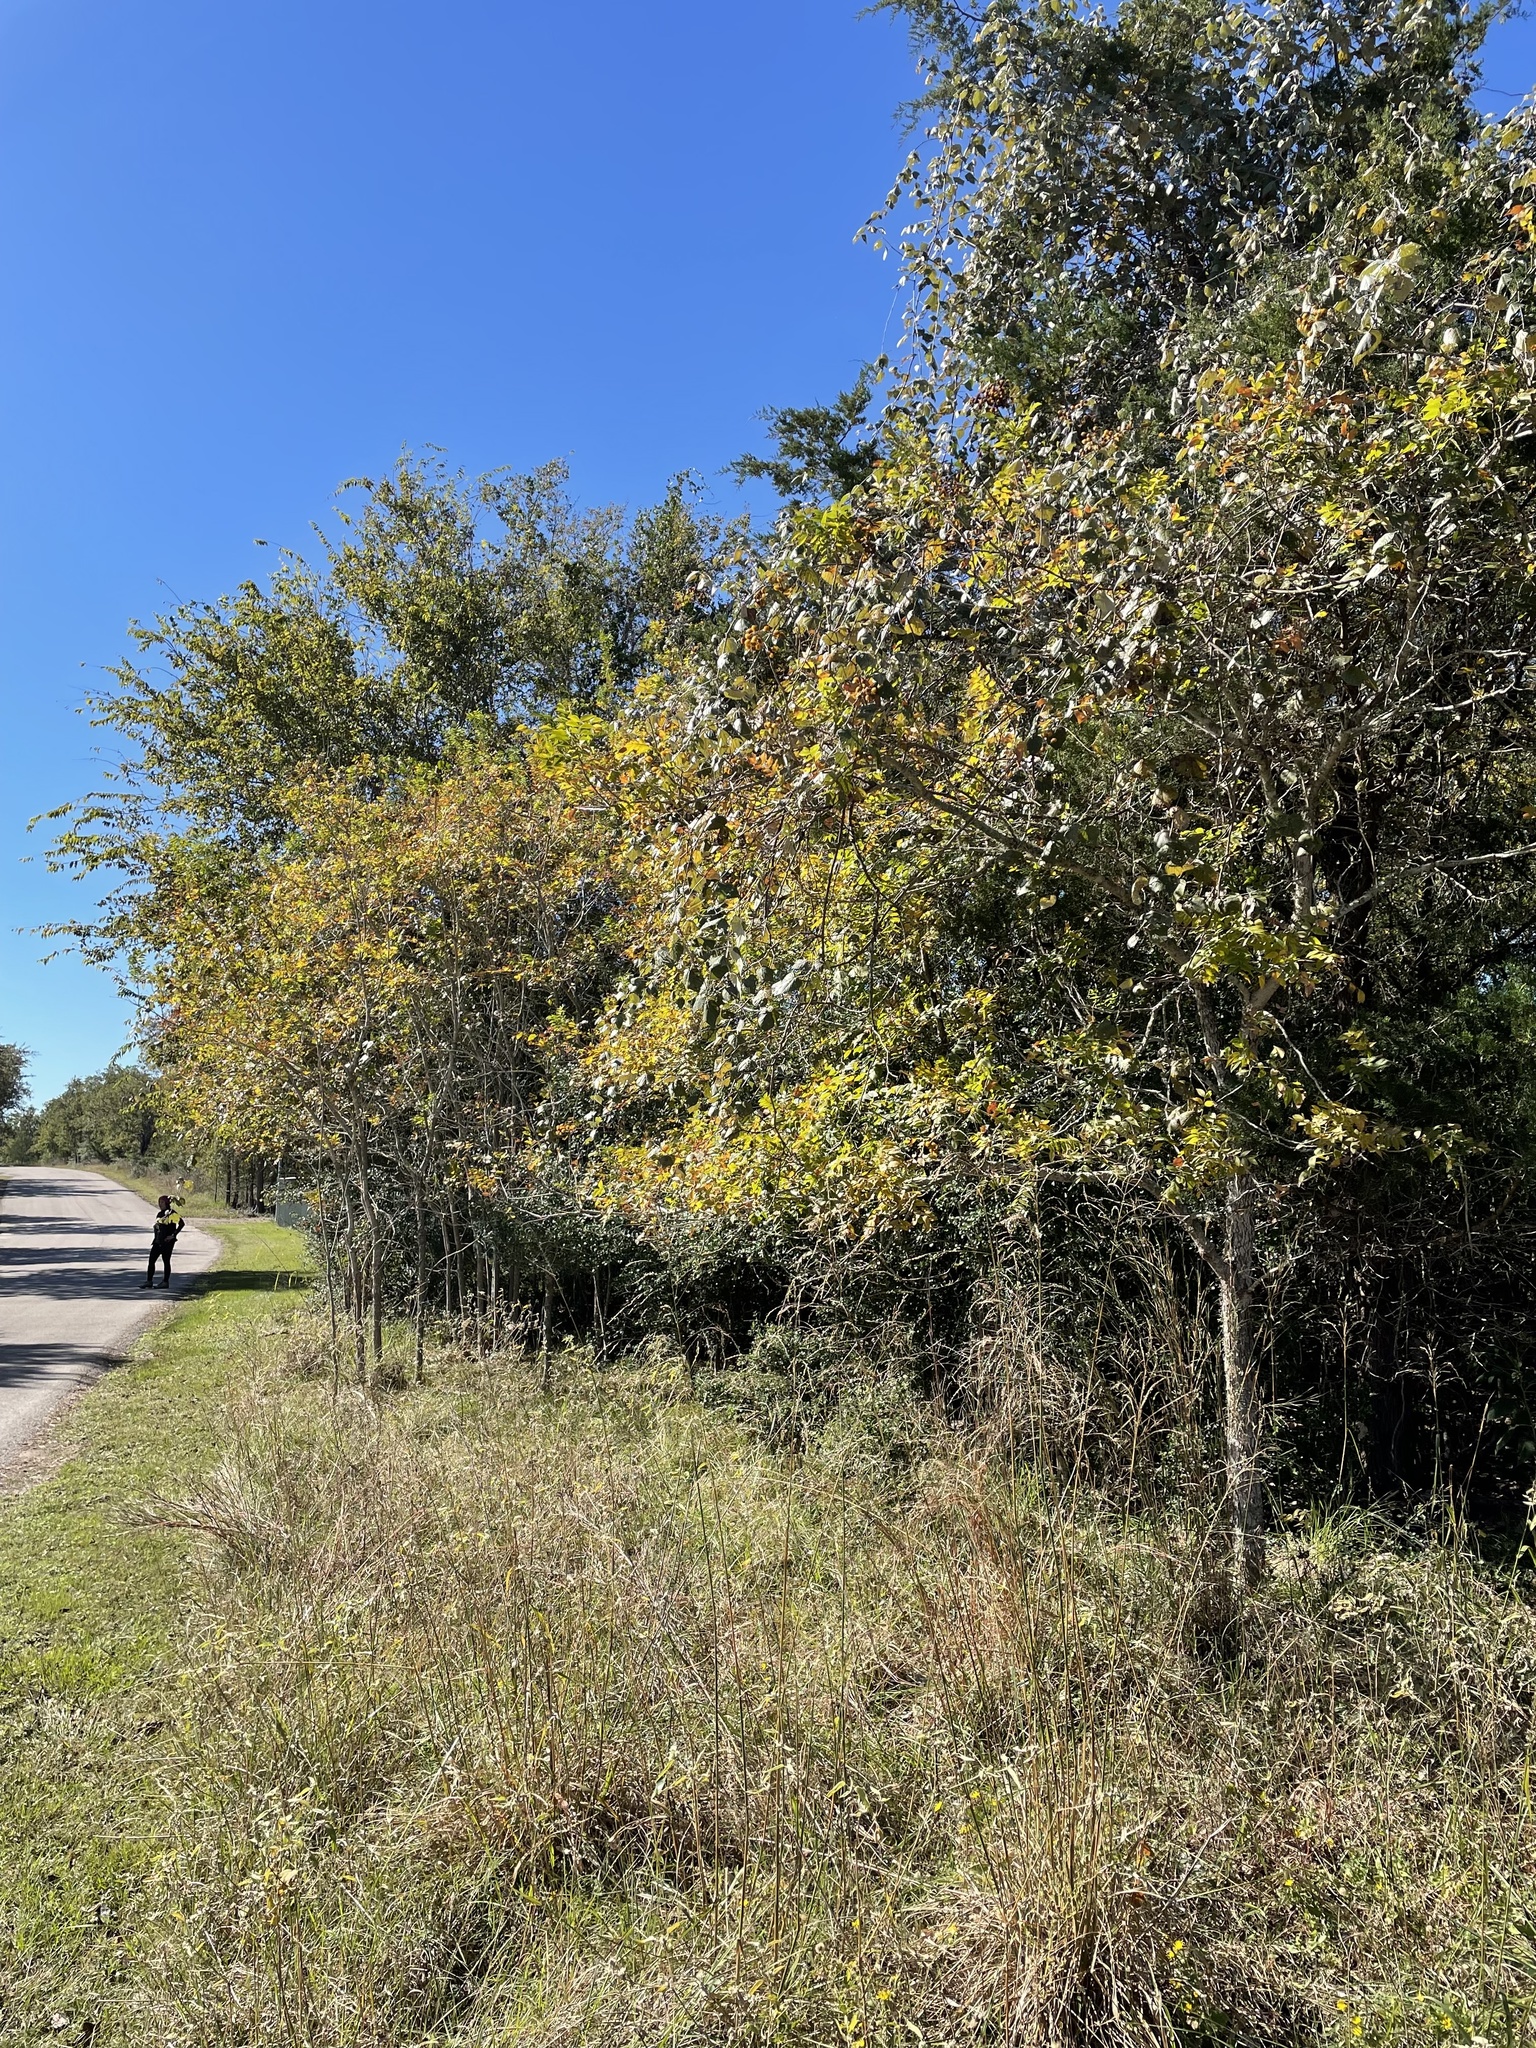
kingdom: Plantae
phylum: Tracheophyta
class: Magnoliopsida
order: Sapindales
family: Sapindaceae
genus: Sapindus
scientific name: Sapindus drummondii
